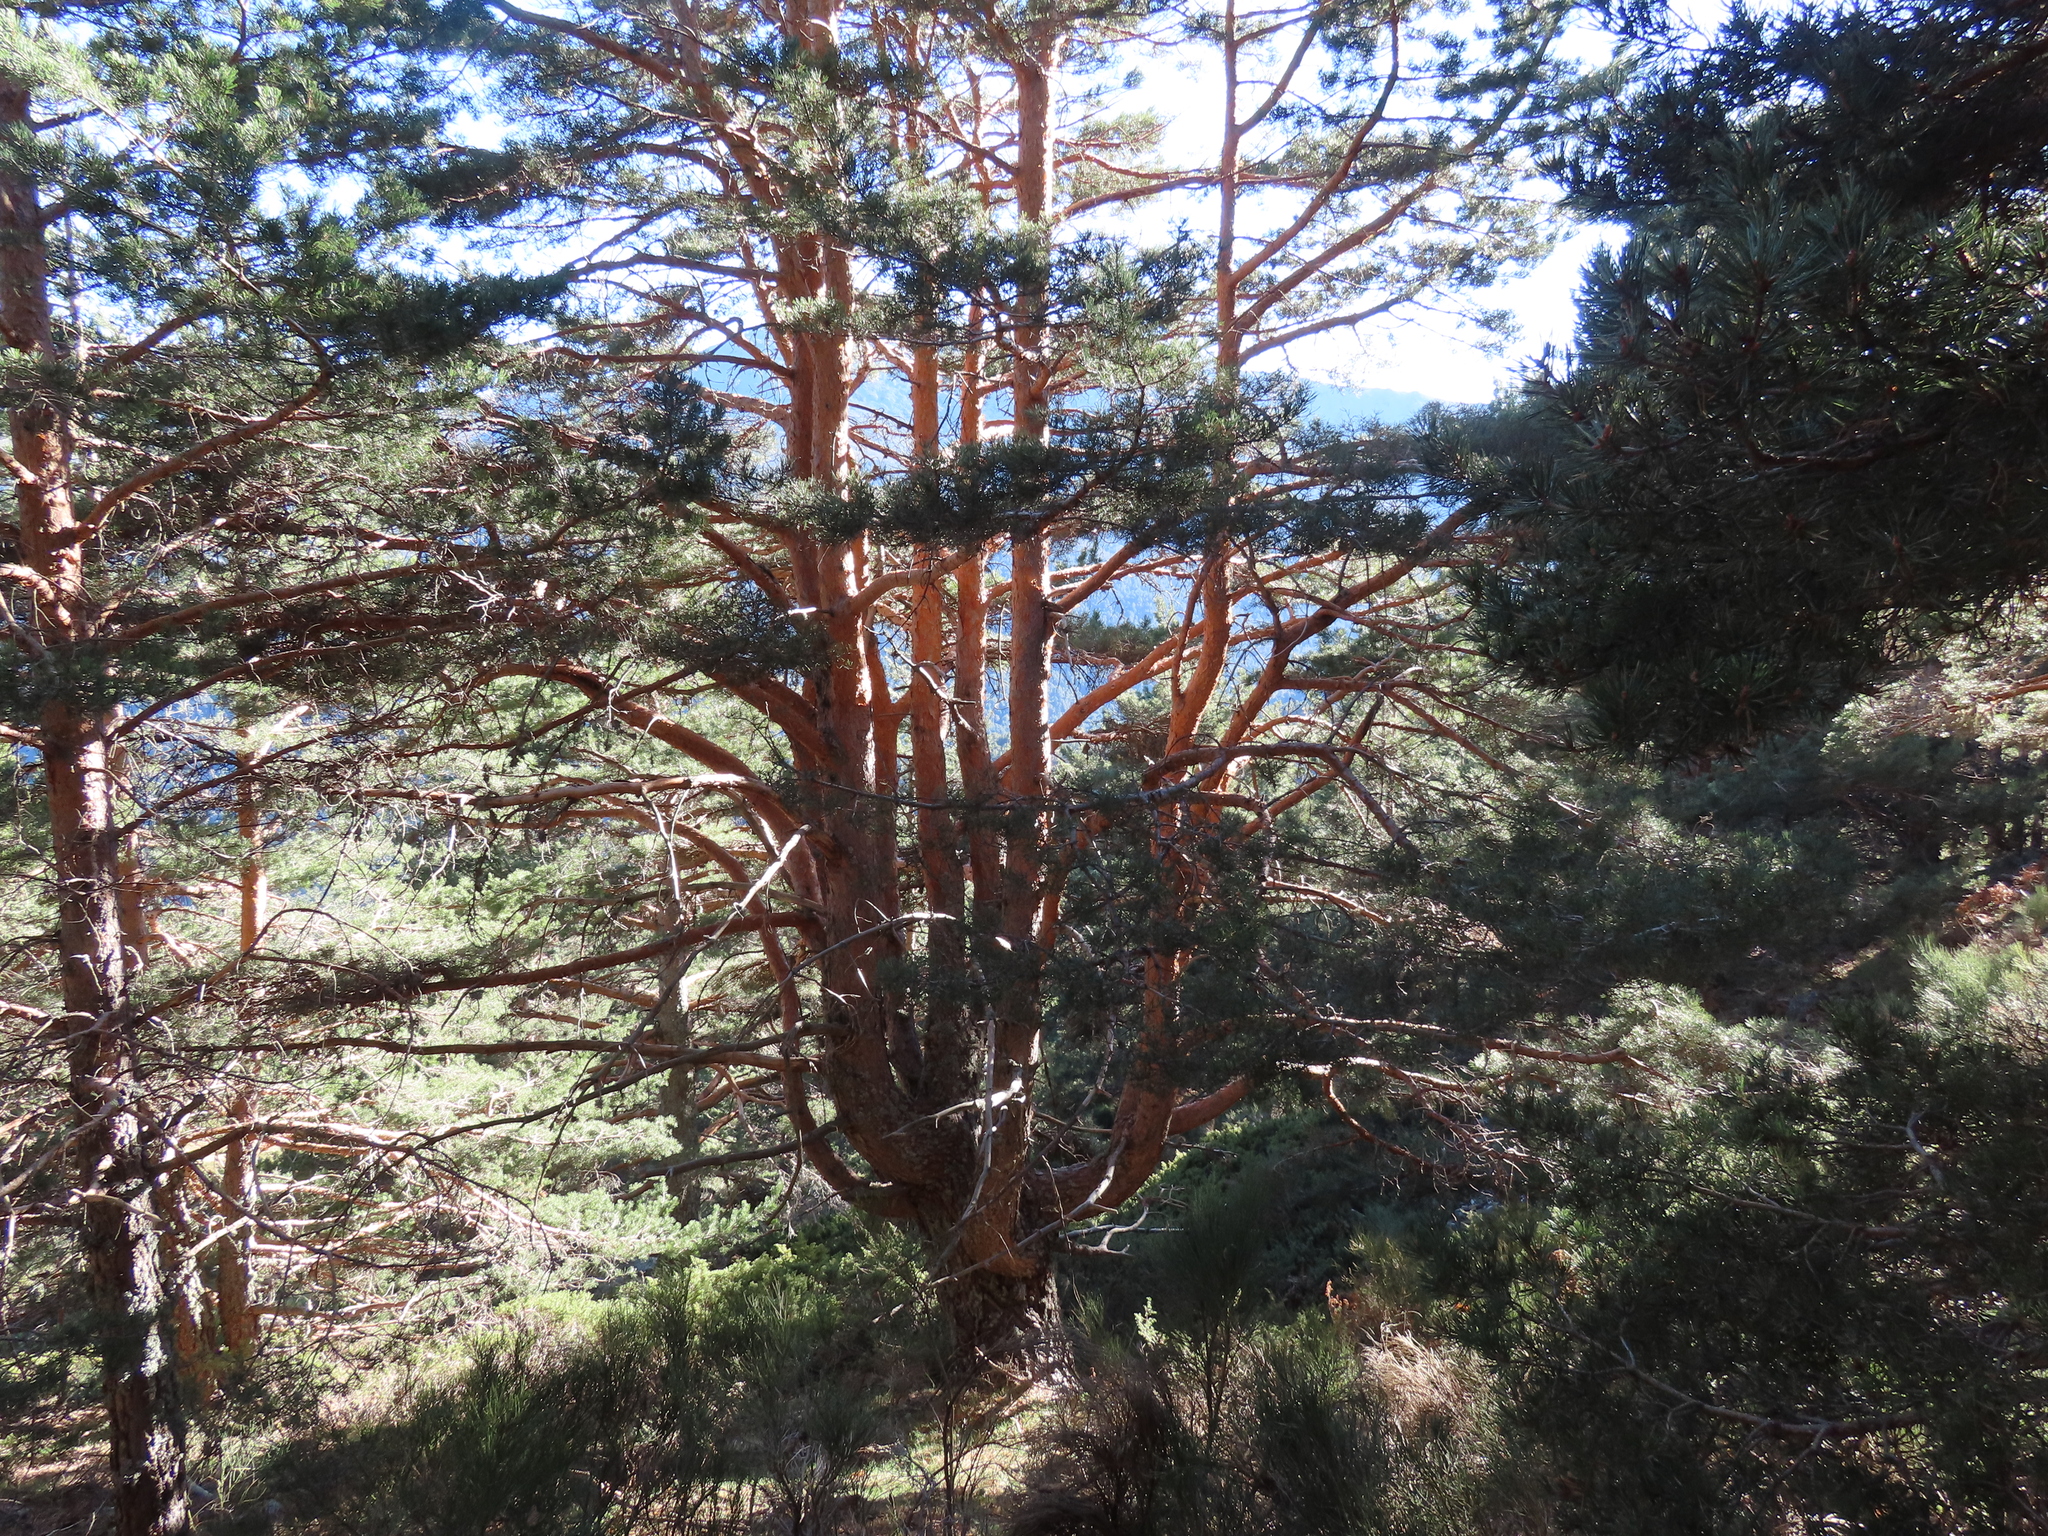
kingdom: Plantae
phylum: Tracheophyta
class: Pinopsida
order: Pinales
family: Pinaceae
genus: Pinus
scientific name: Pinus sylvestris
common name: Scots pine
